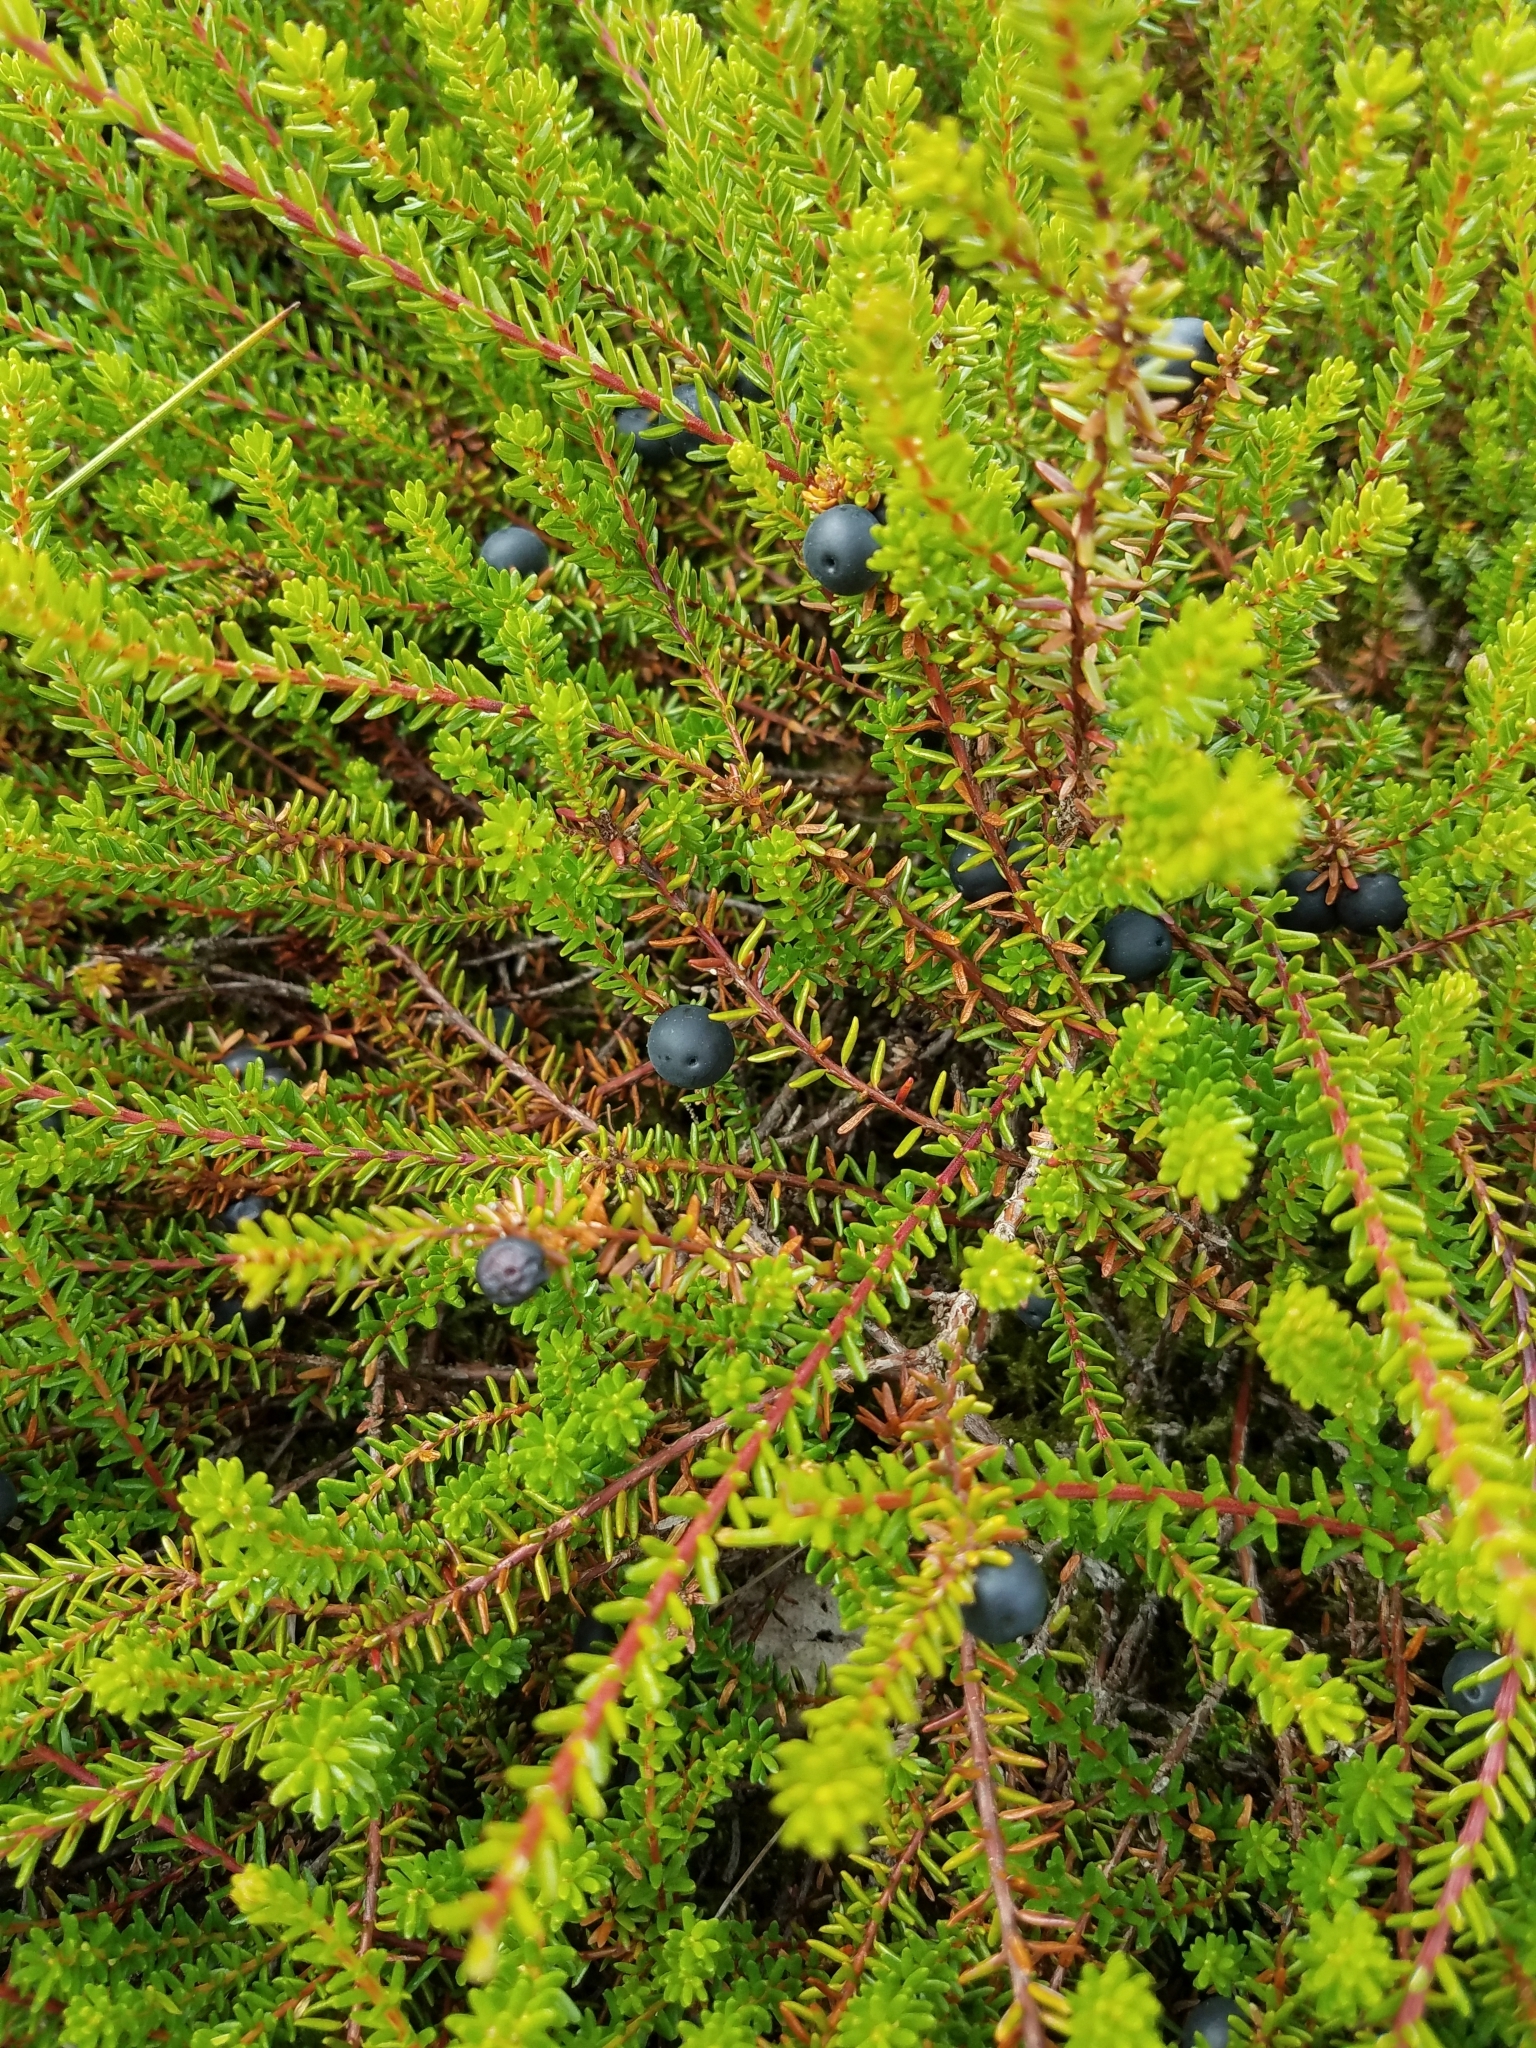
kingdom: Plantae
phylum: Tracheophyta
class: Magnoliopsida
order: Ericales
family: Ericaceae
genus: Empetrum
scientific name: Empetrum nigrum
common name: Black crowberry
